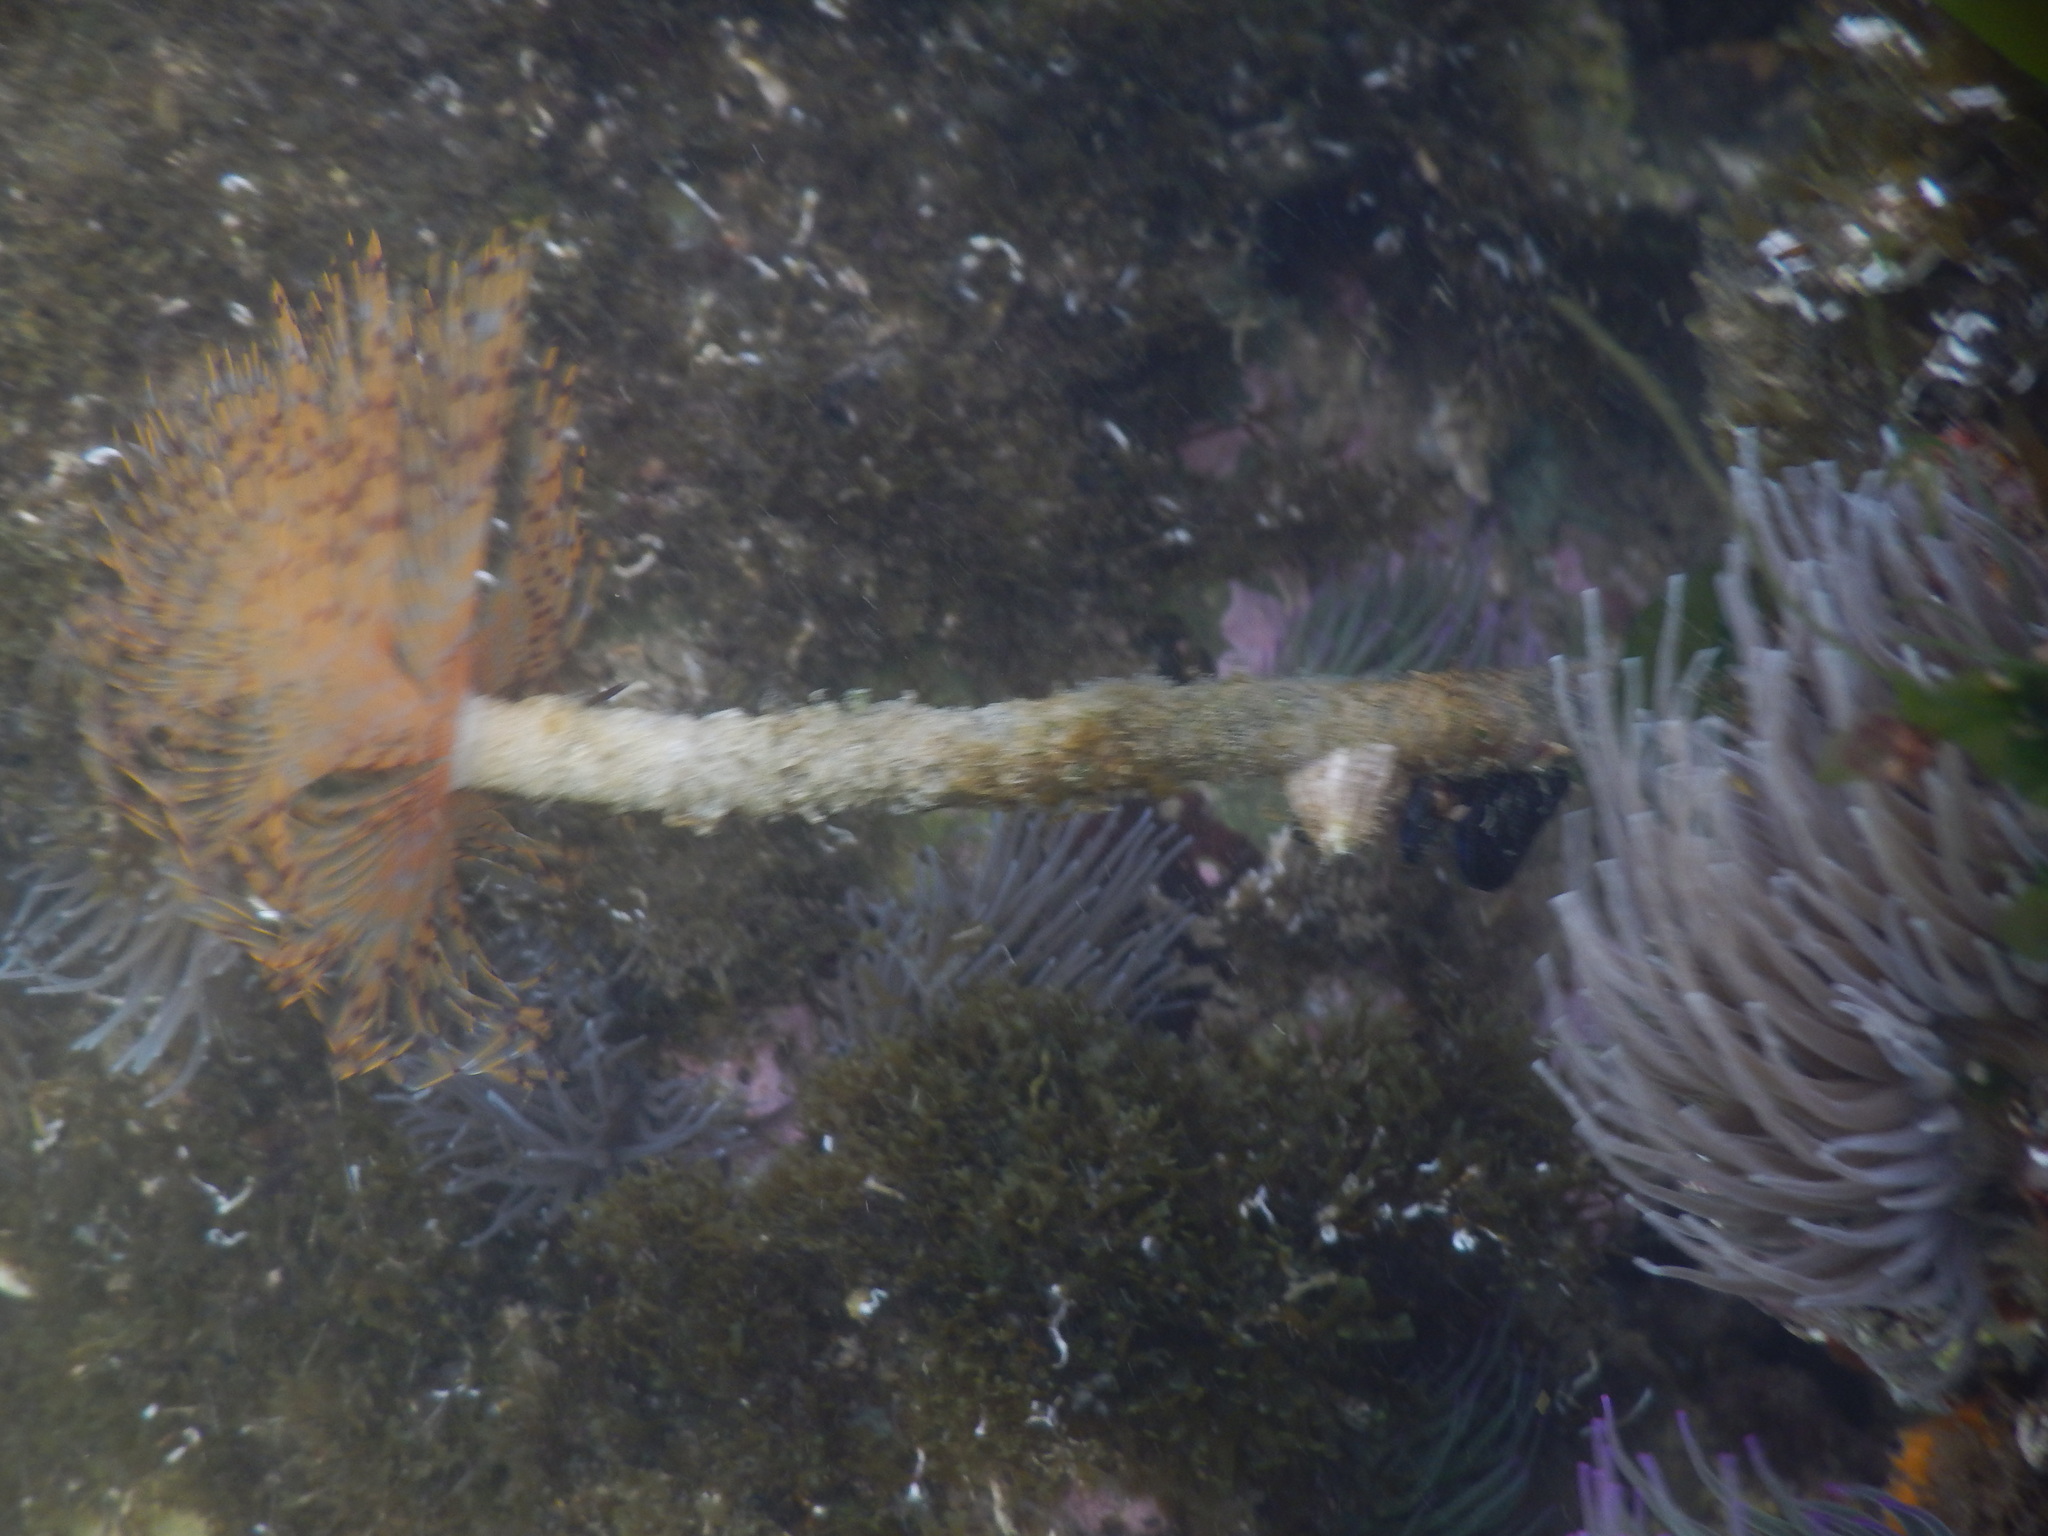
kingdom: Animalia
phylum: Annelida
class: Polychaeta
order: Sabellida
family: Sabellidae
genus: Sabella
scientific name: Sabella spallanzanii
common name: Feather duster worm
